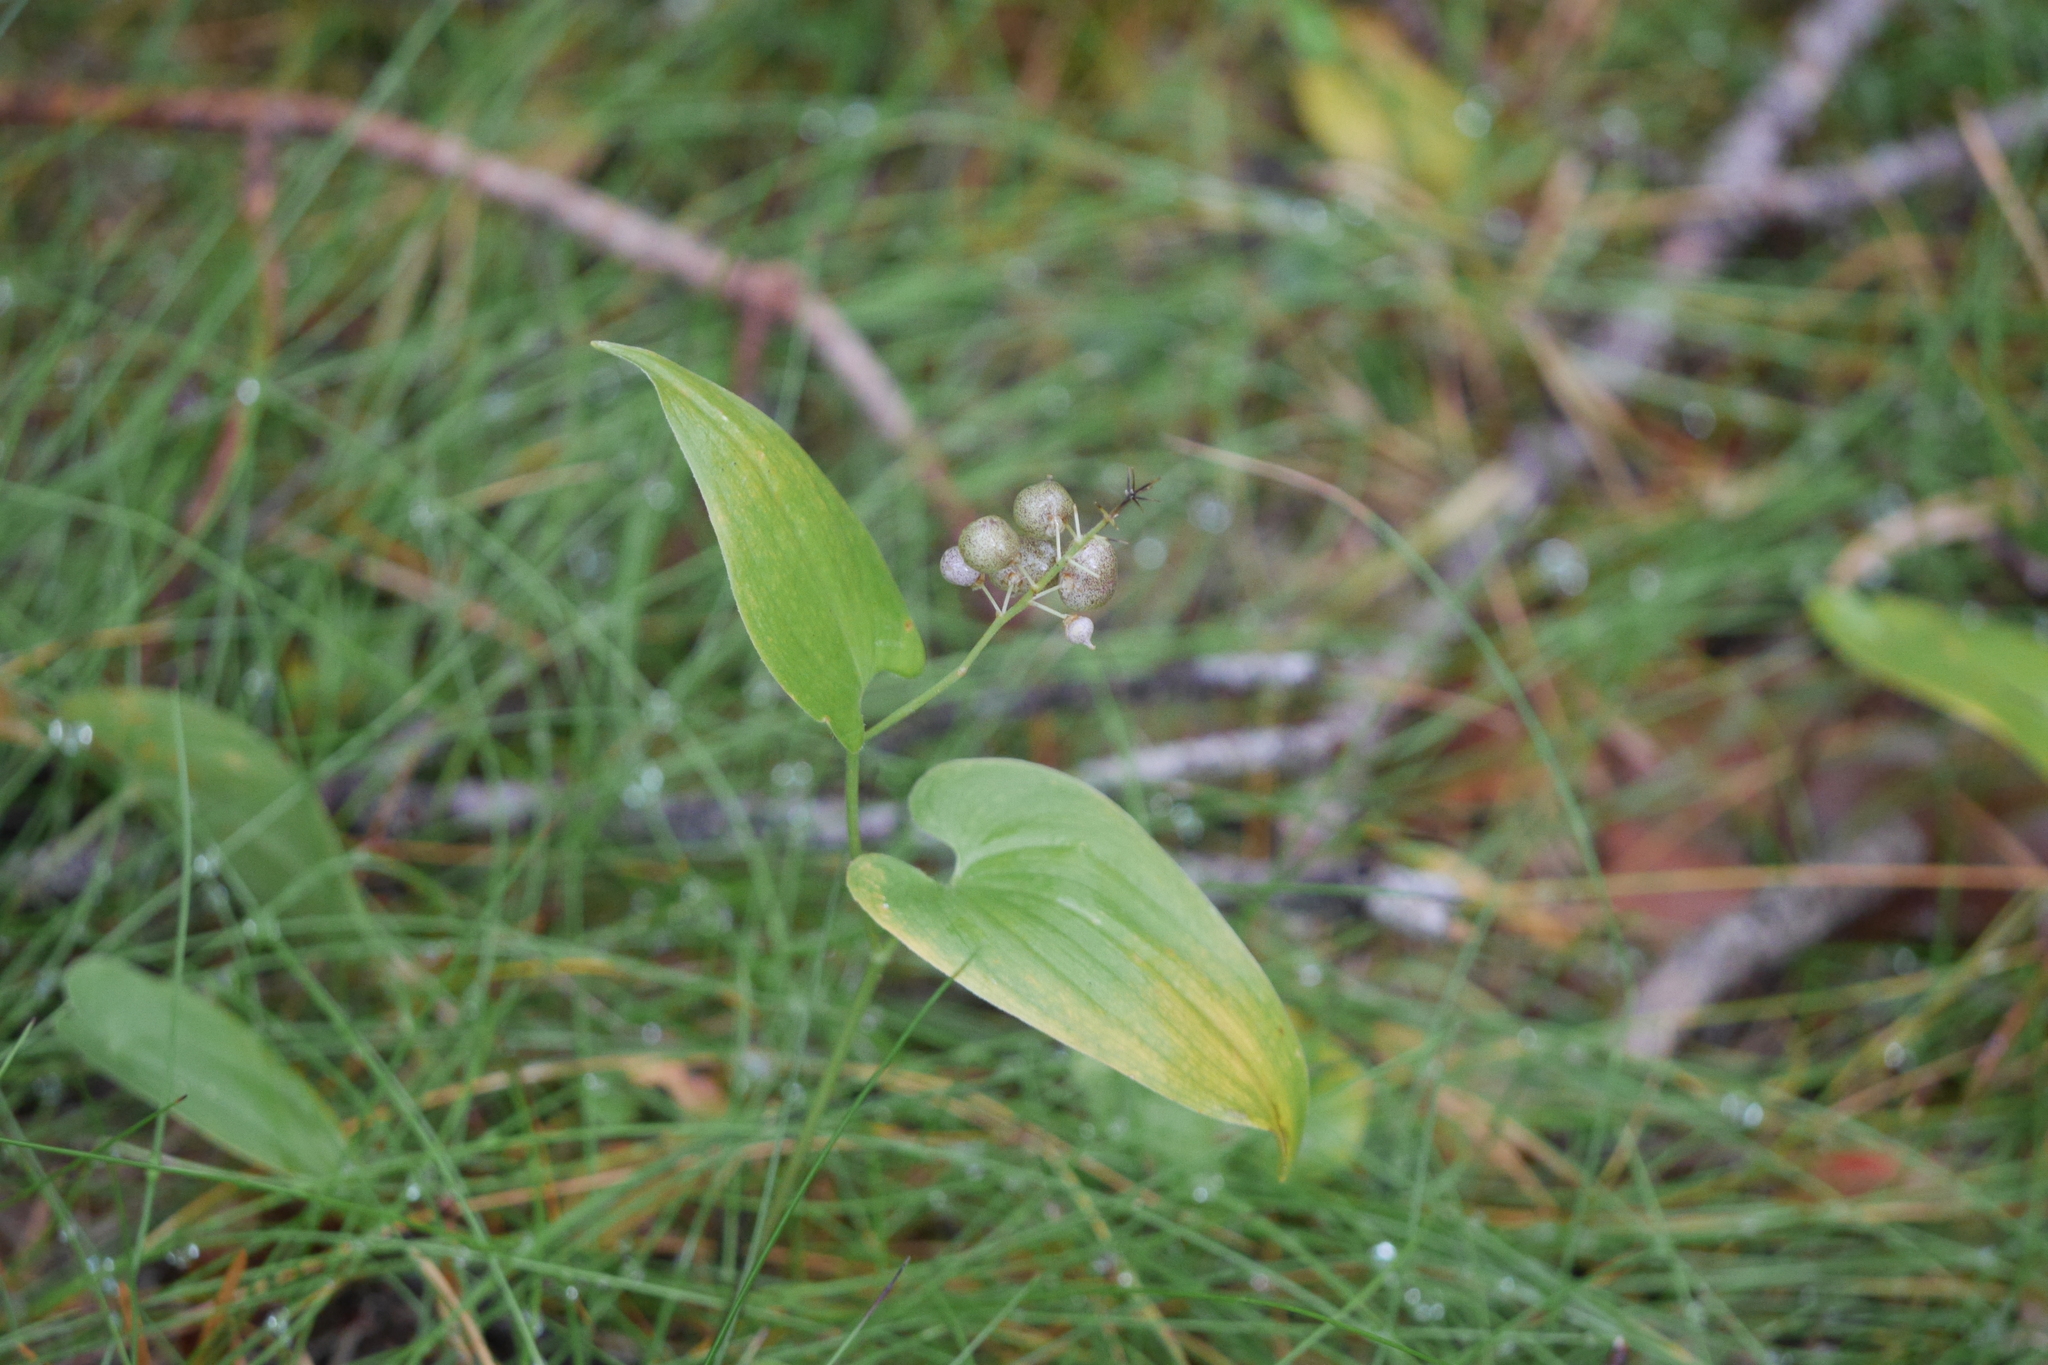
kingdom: Plantae
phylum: Tracheophyta
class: Liliopsida
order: Asparagales
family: Asparagaceae
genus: Maianthemum
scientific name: Maianthemum bifolium
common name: May lily
